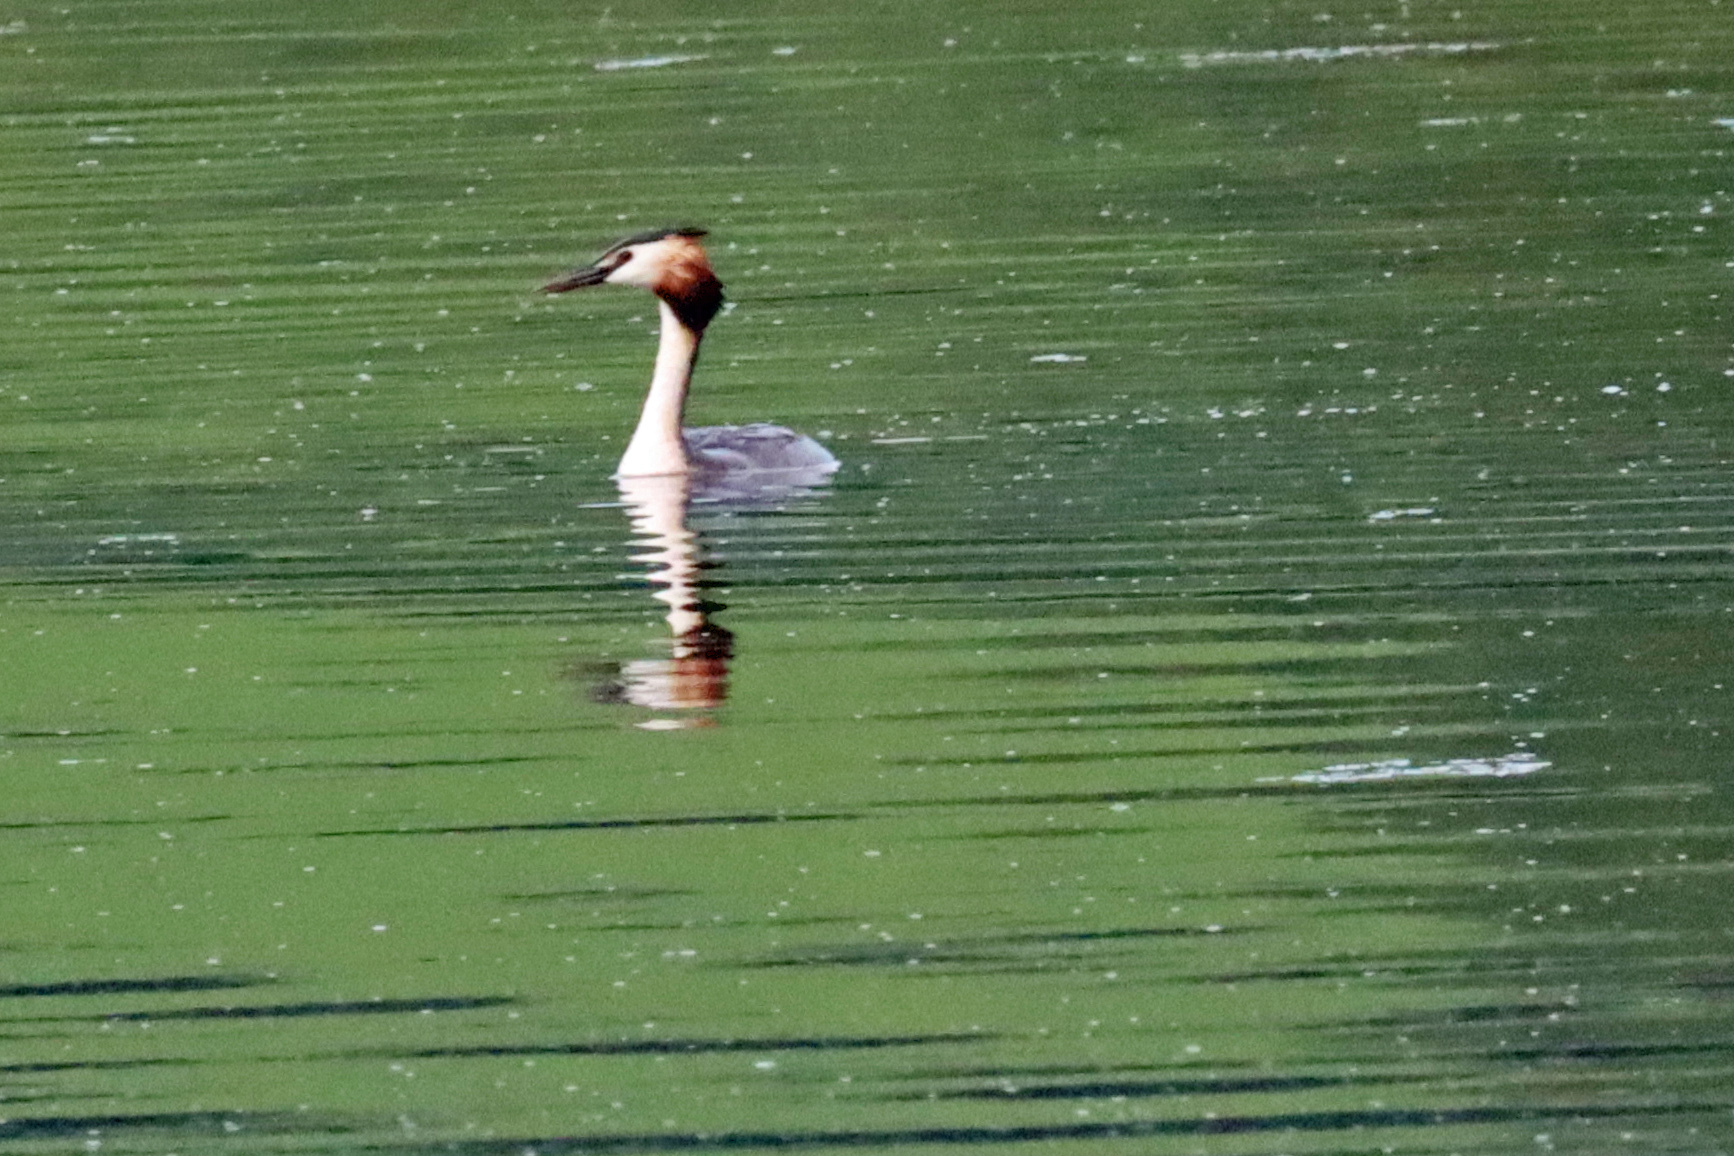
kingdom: Animalia
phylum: Chordata
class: Aves
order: Podicipediformes
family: Podicipedidae
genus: Podiceps
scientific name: Podiceps cristatus
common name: Great crested grebe
